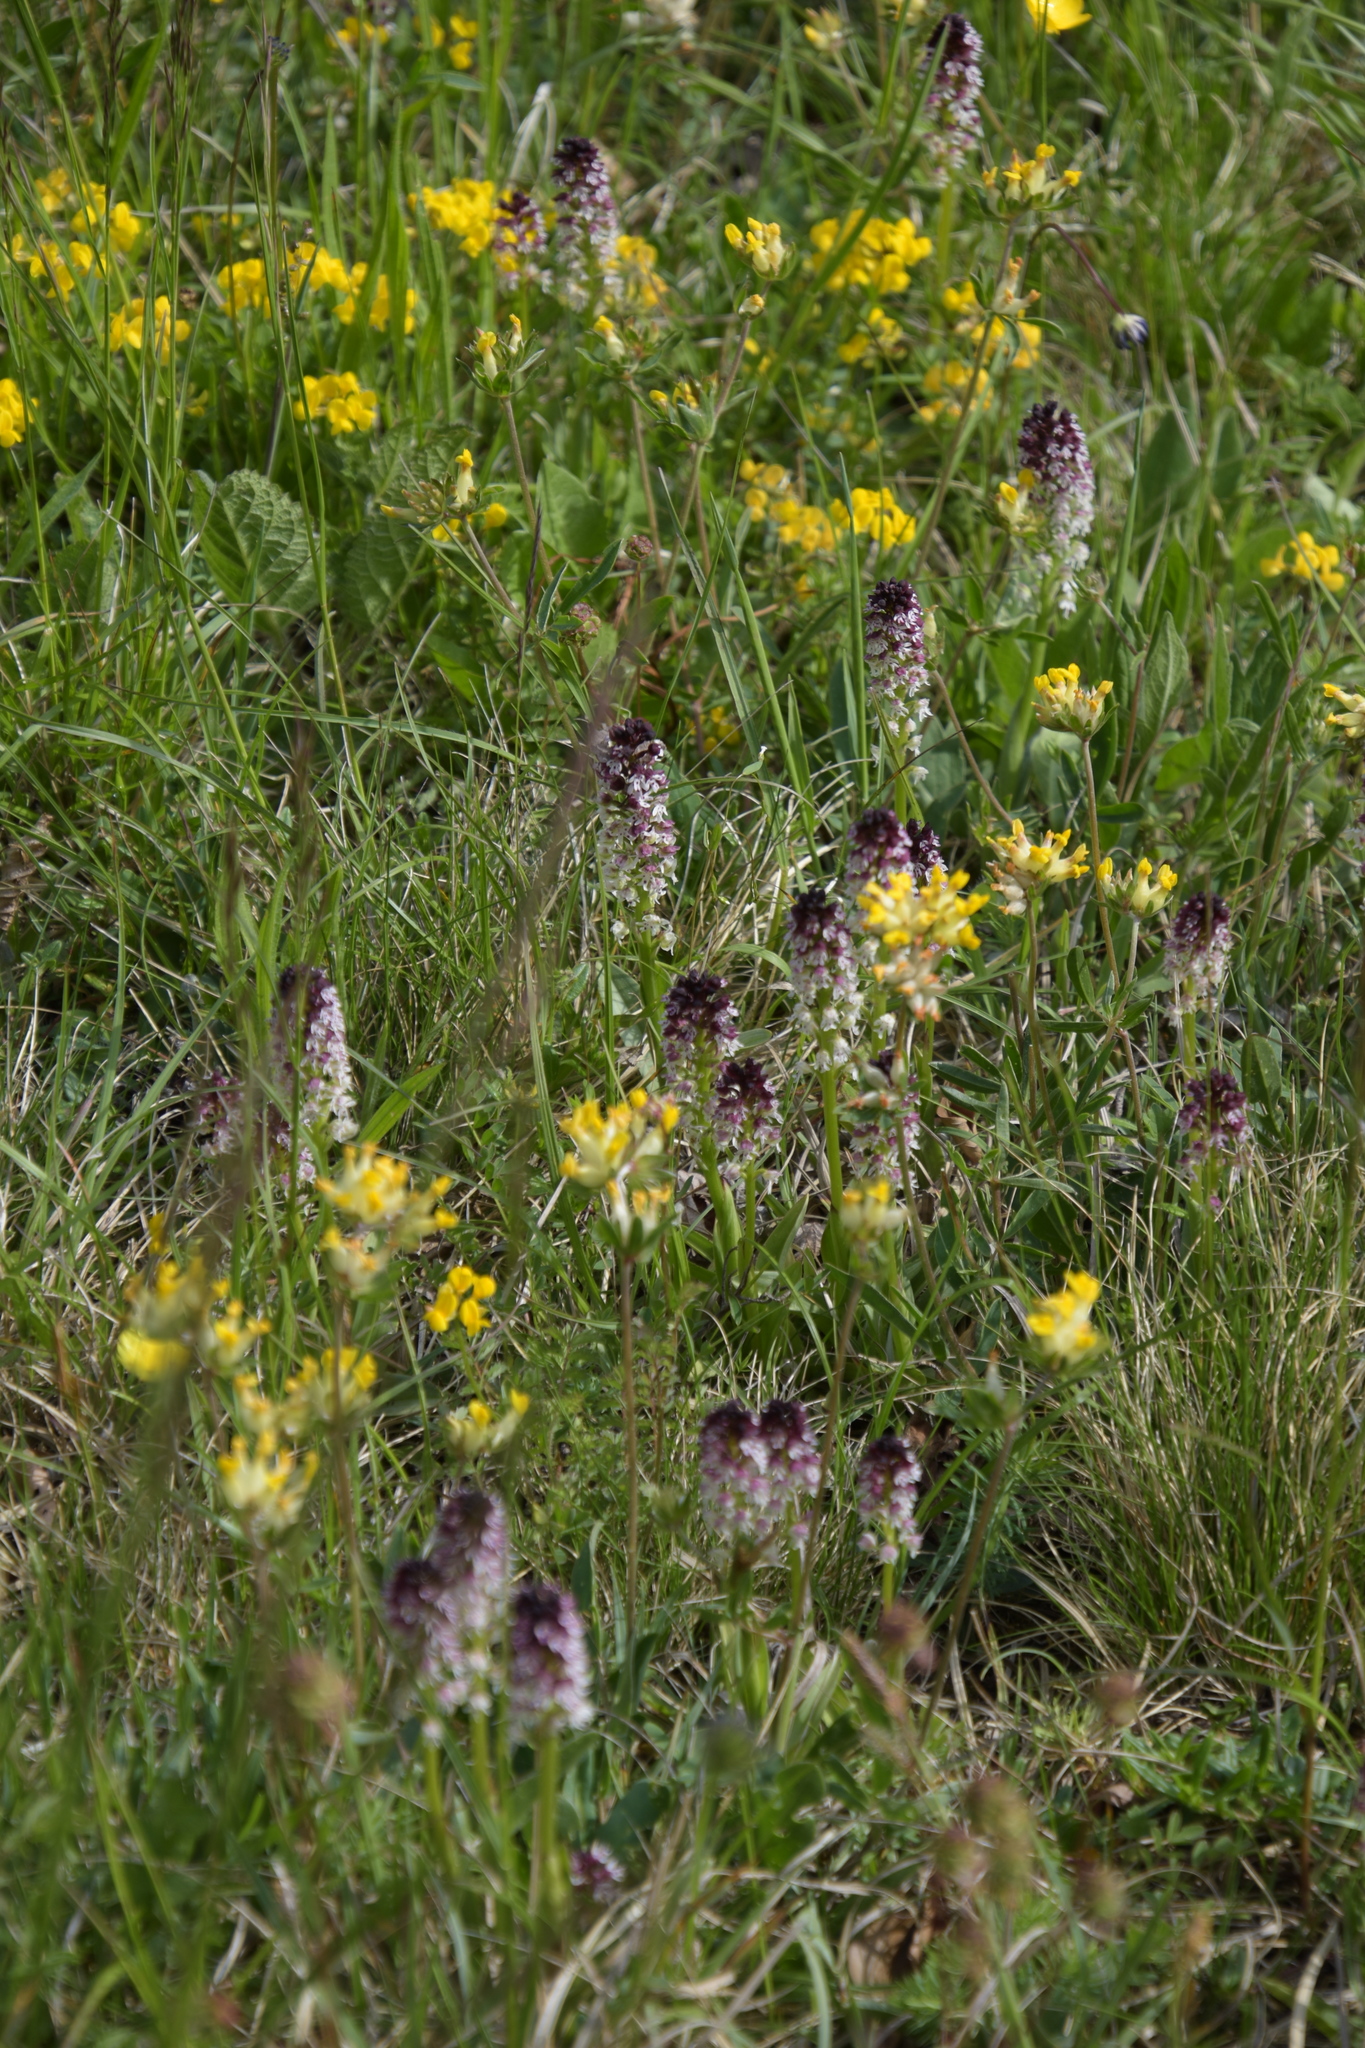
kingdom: Plantae
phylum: Tracheophyta
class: Liliopsida
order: Asparagales
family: Orchidaceae
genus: Neotinea
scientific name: Neotinea ustulata
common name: Burnt orchid
